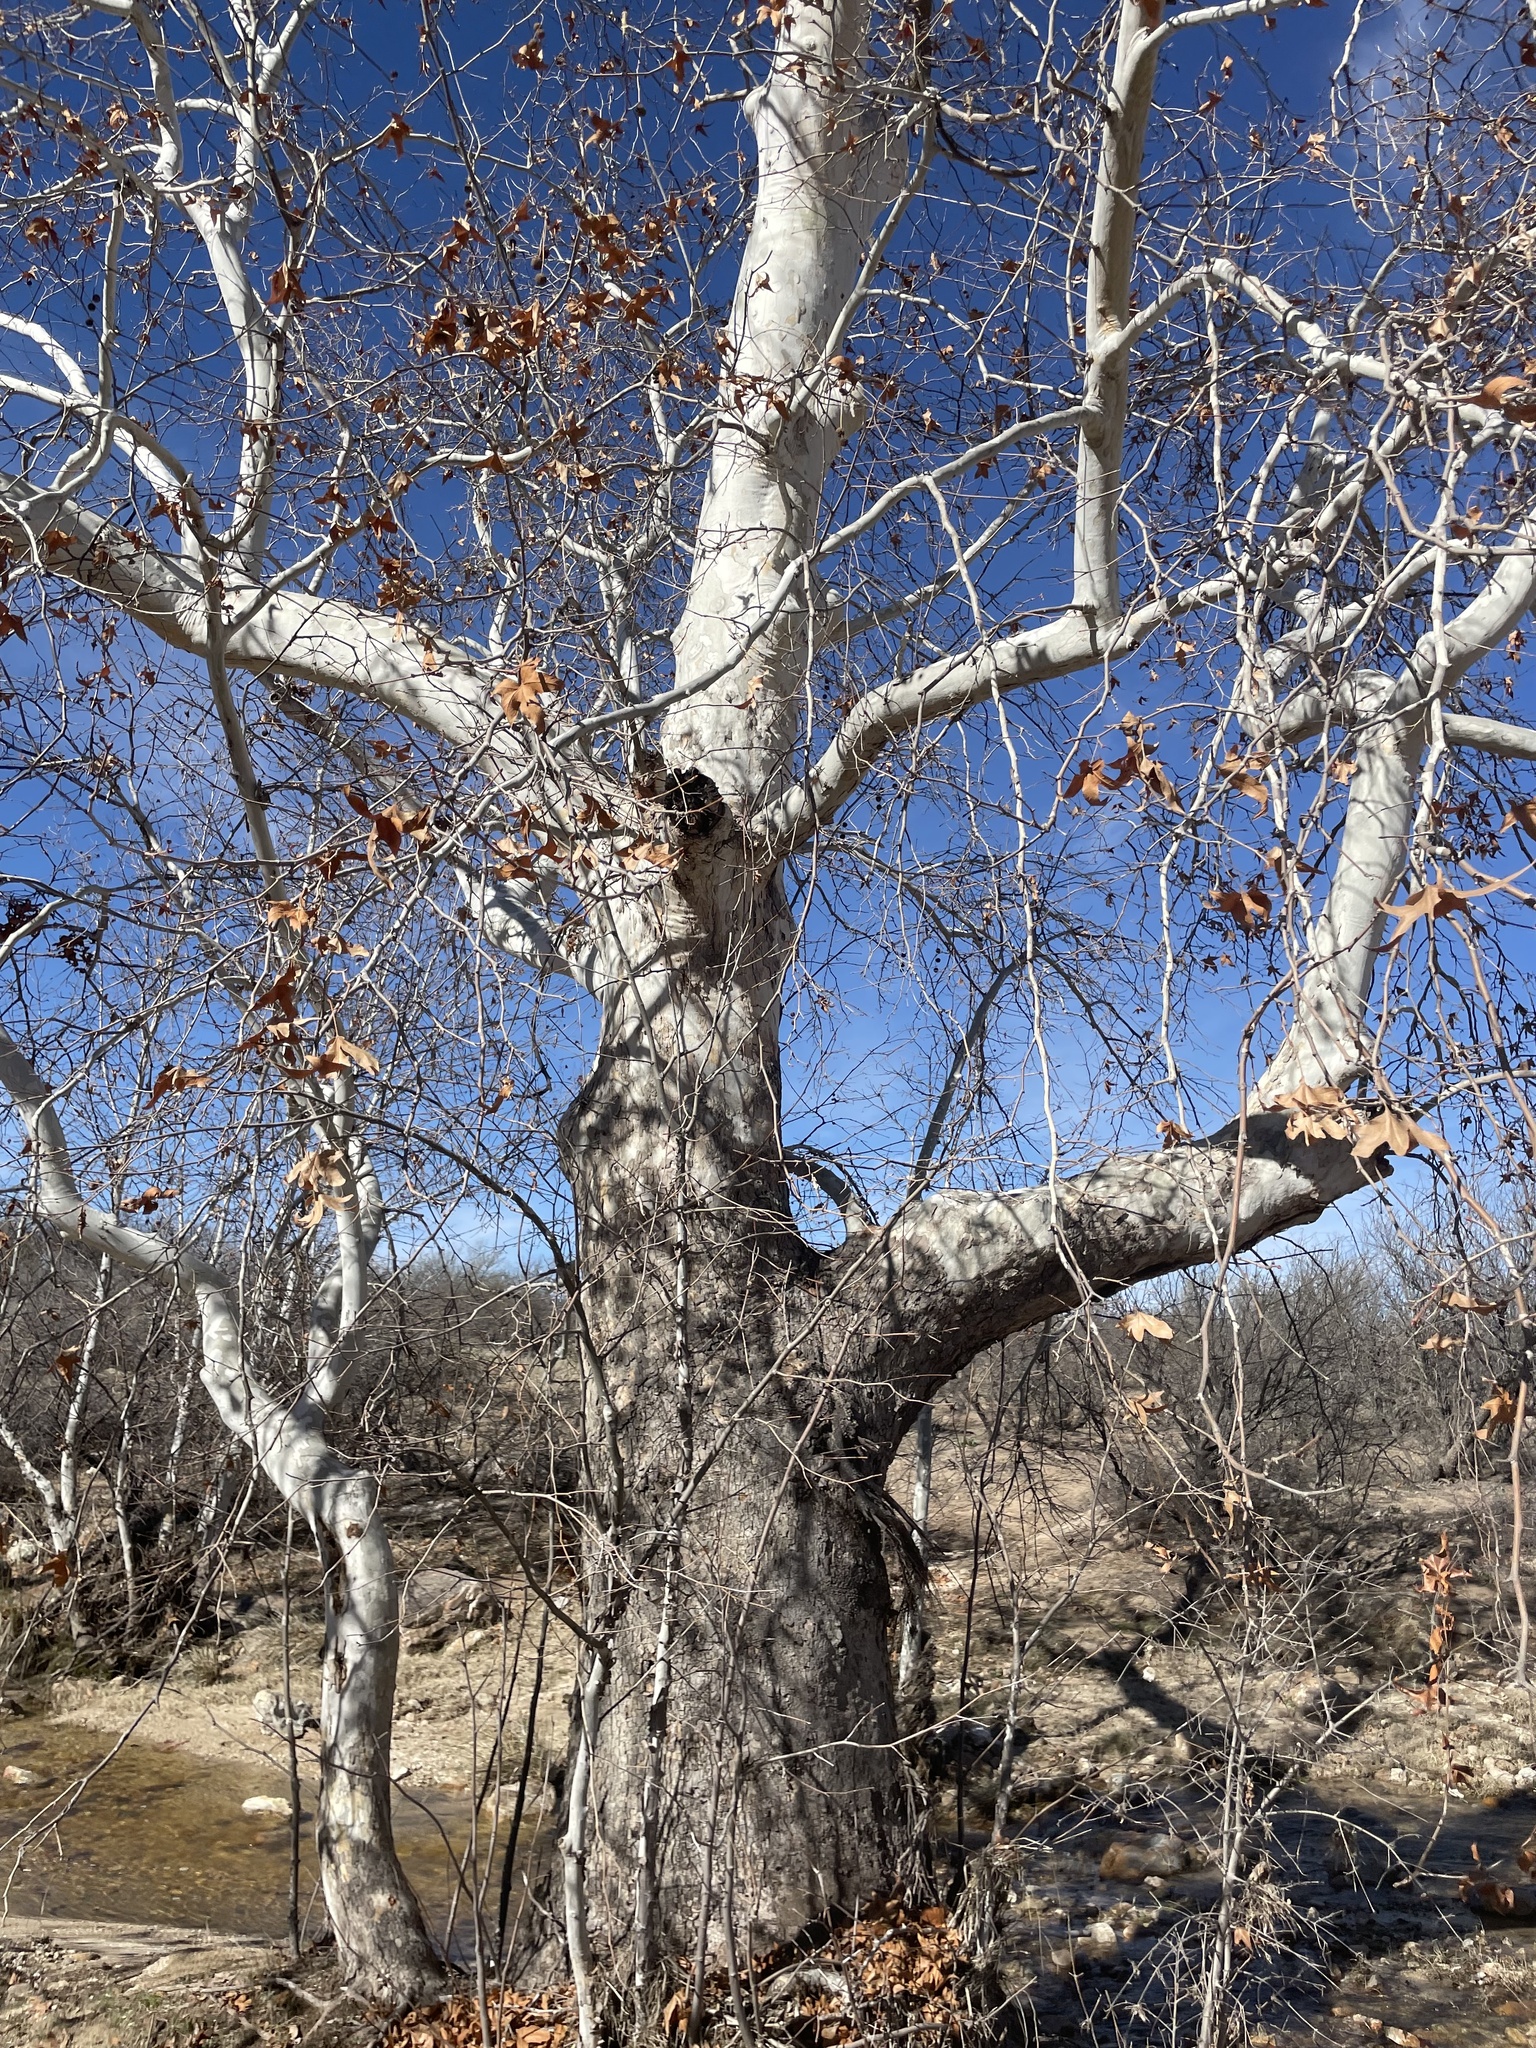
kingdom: Plantae
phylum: Tracheophyta
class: Magnoliopsida
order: Proteales
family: Platanaceae
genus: Platanus
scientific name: Platanus wrightii
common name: Arizona sycamore
